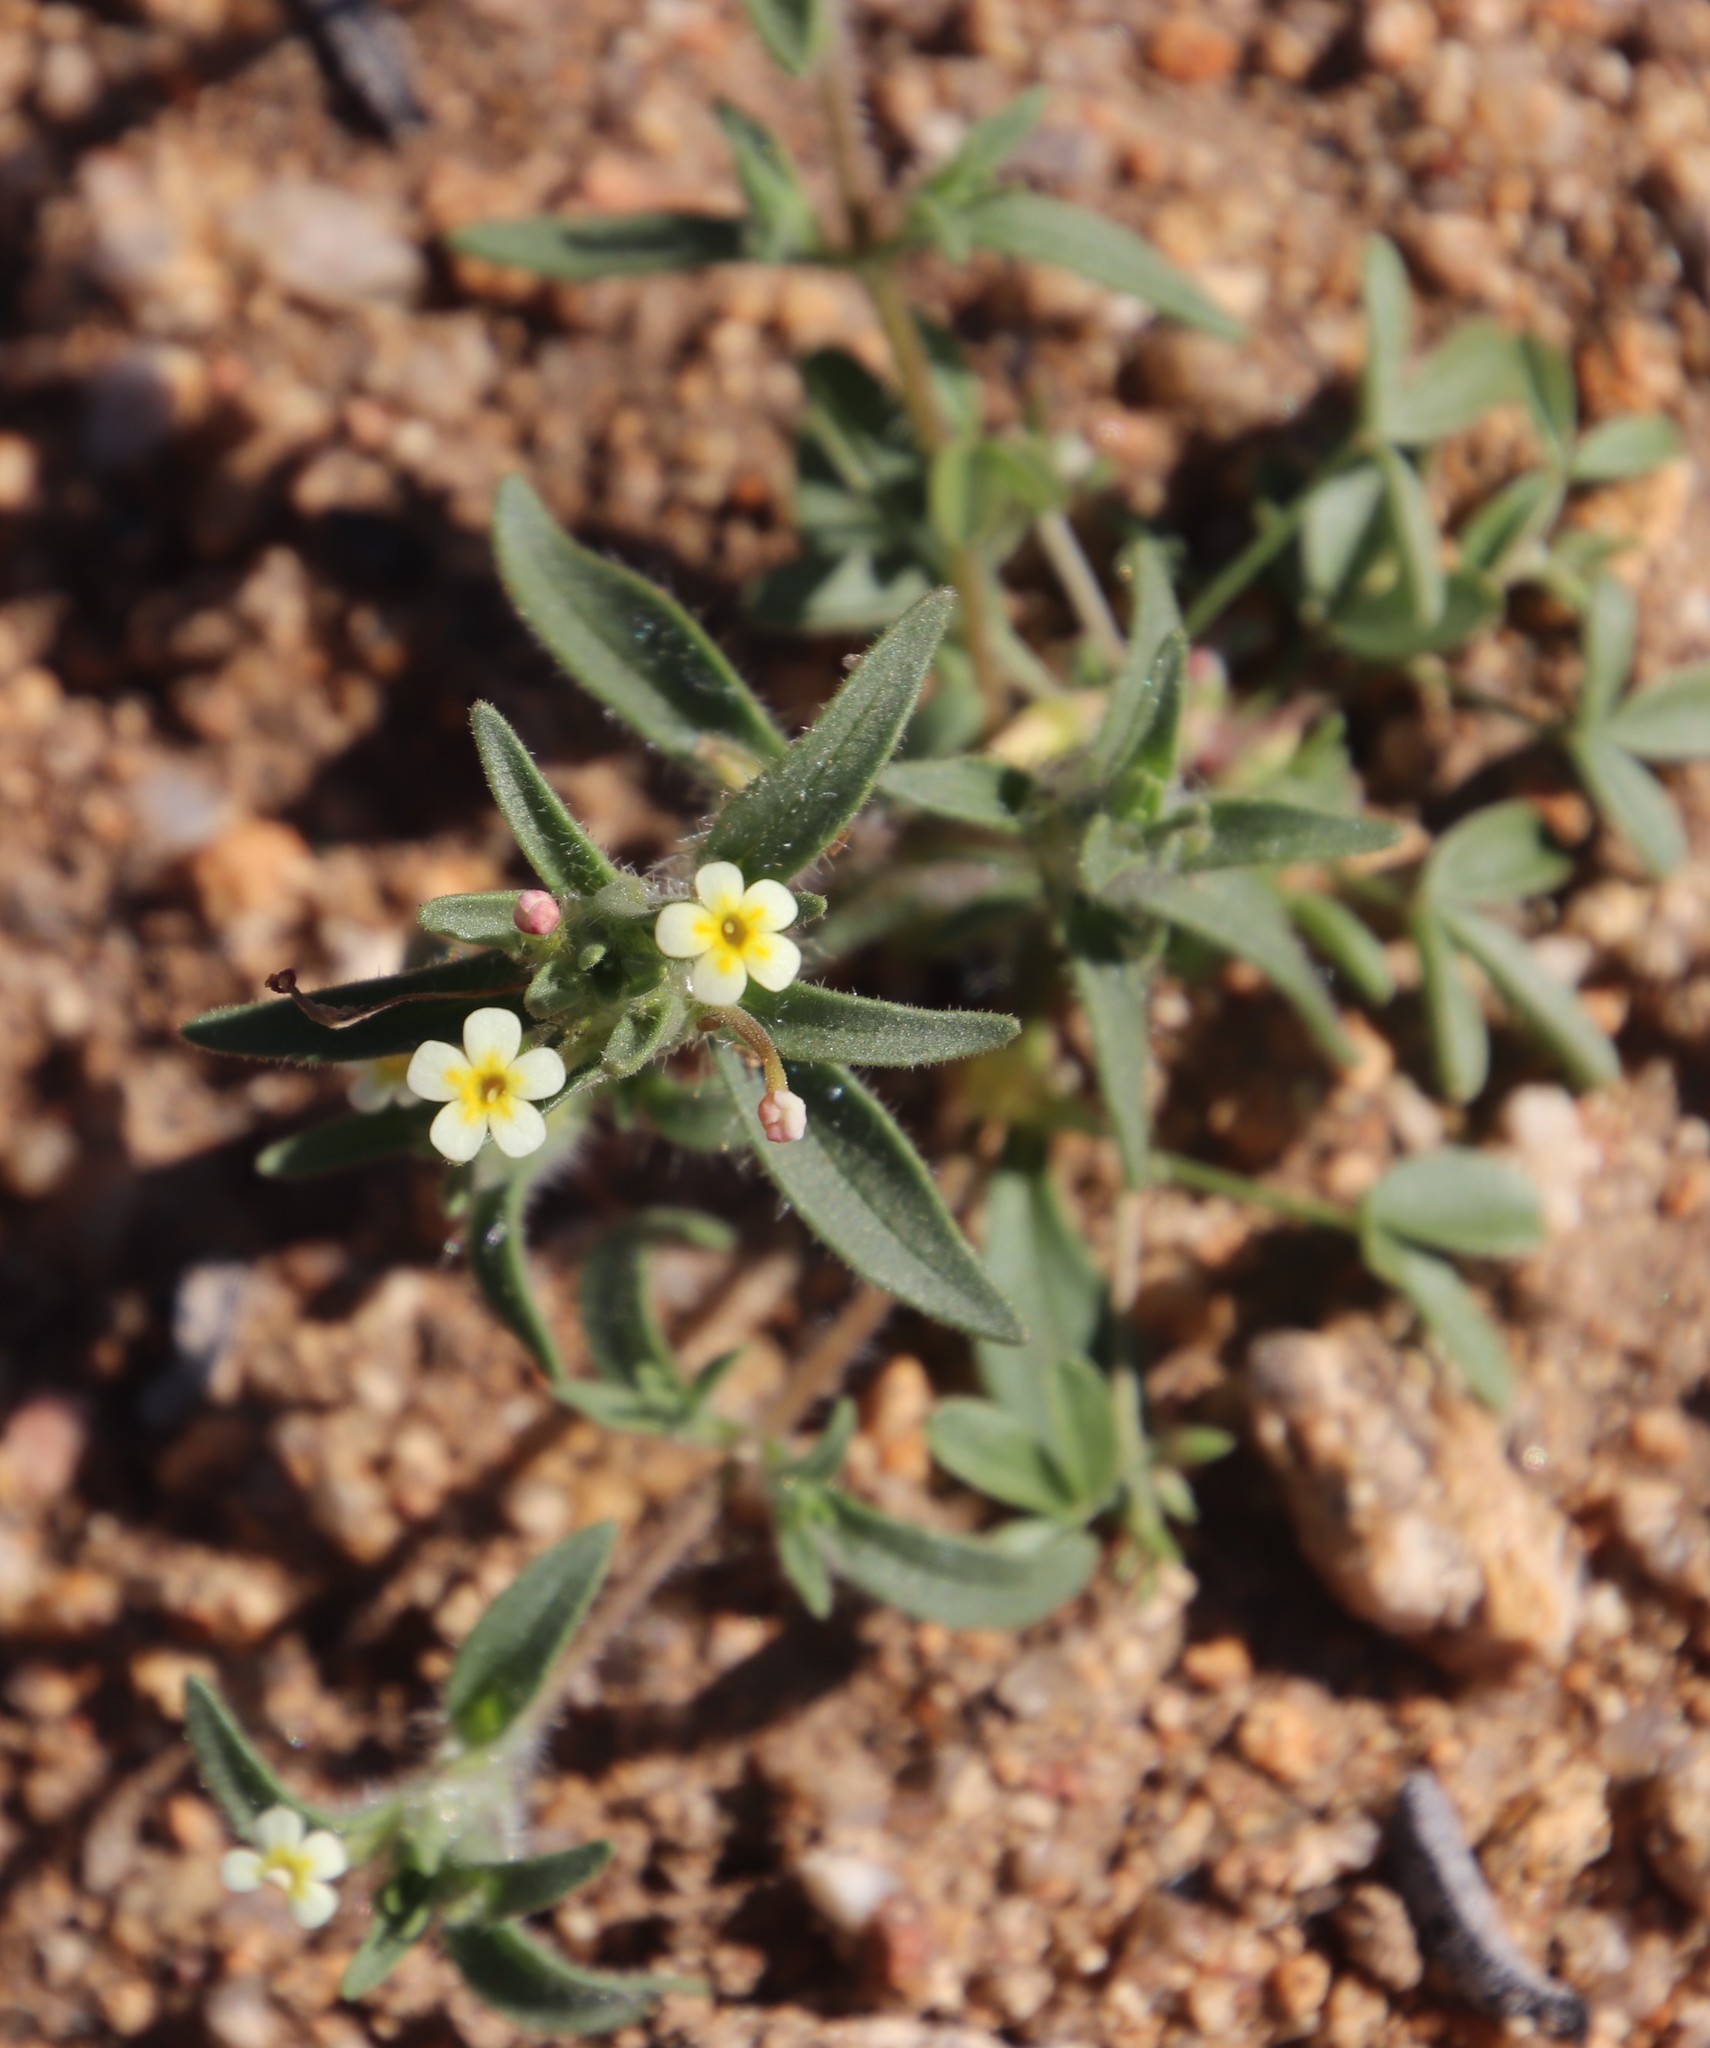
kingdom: Plantae
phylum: Tracheophyta
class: Magnoliopsida
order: Lamiales
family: Scrophulariaceae
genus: Zaluzianskya
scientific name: Zaluzianskya benthamiana
